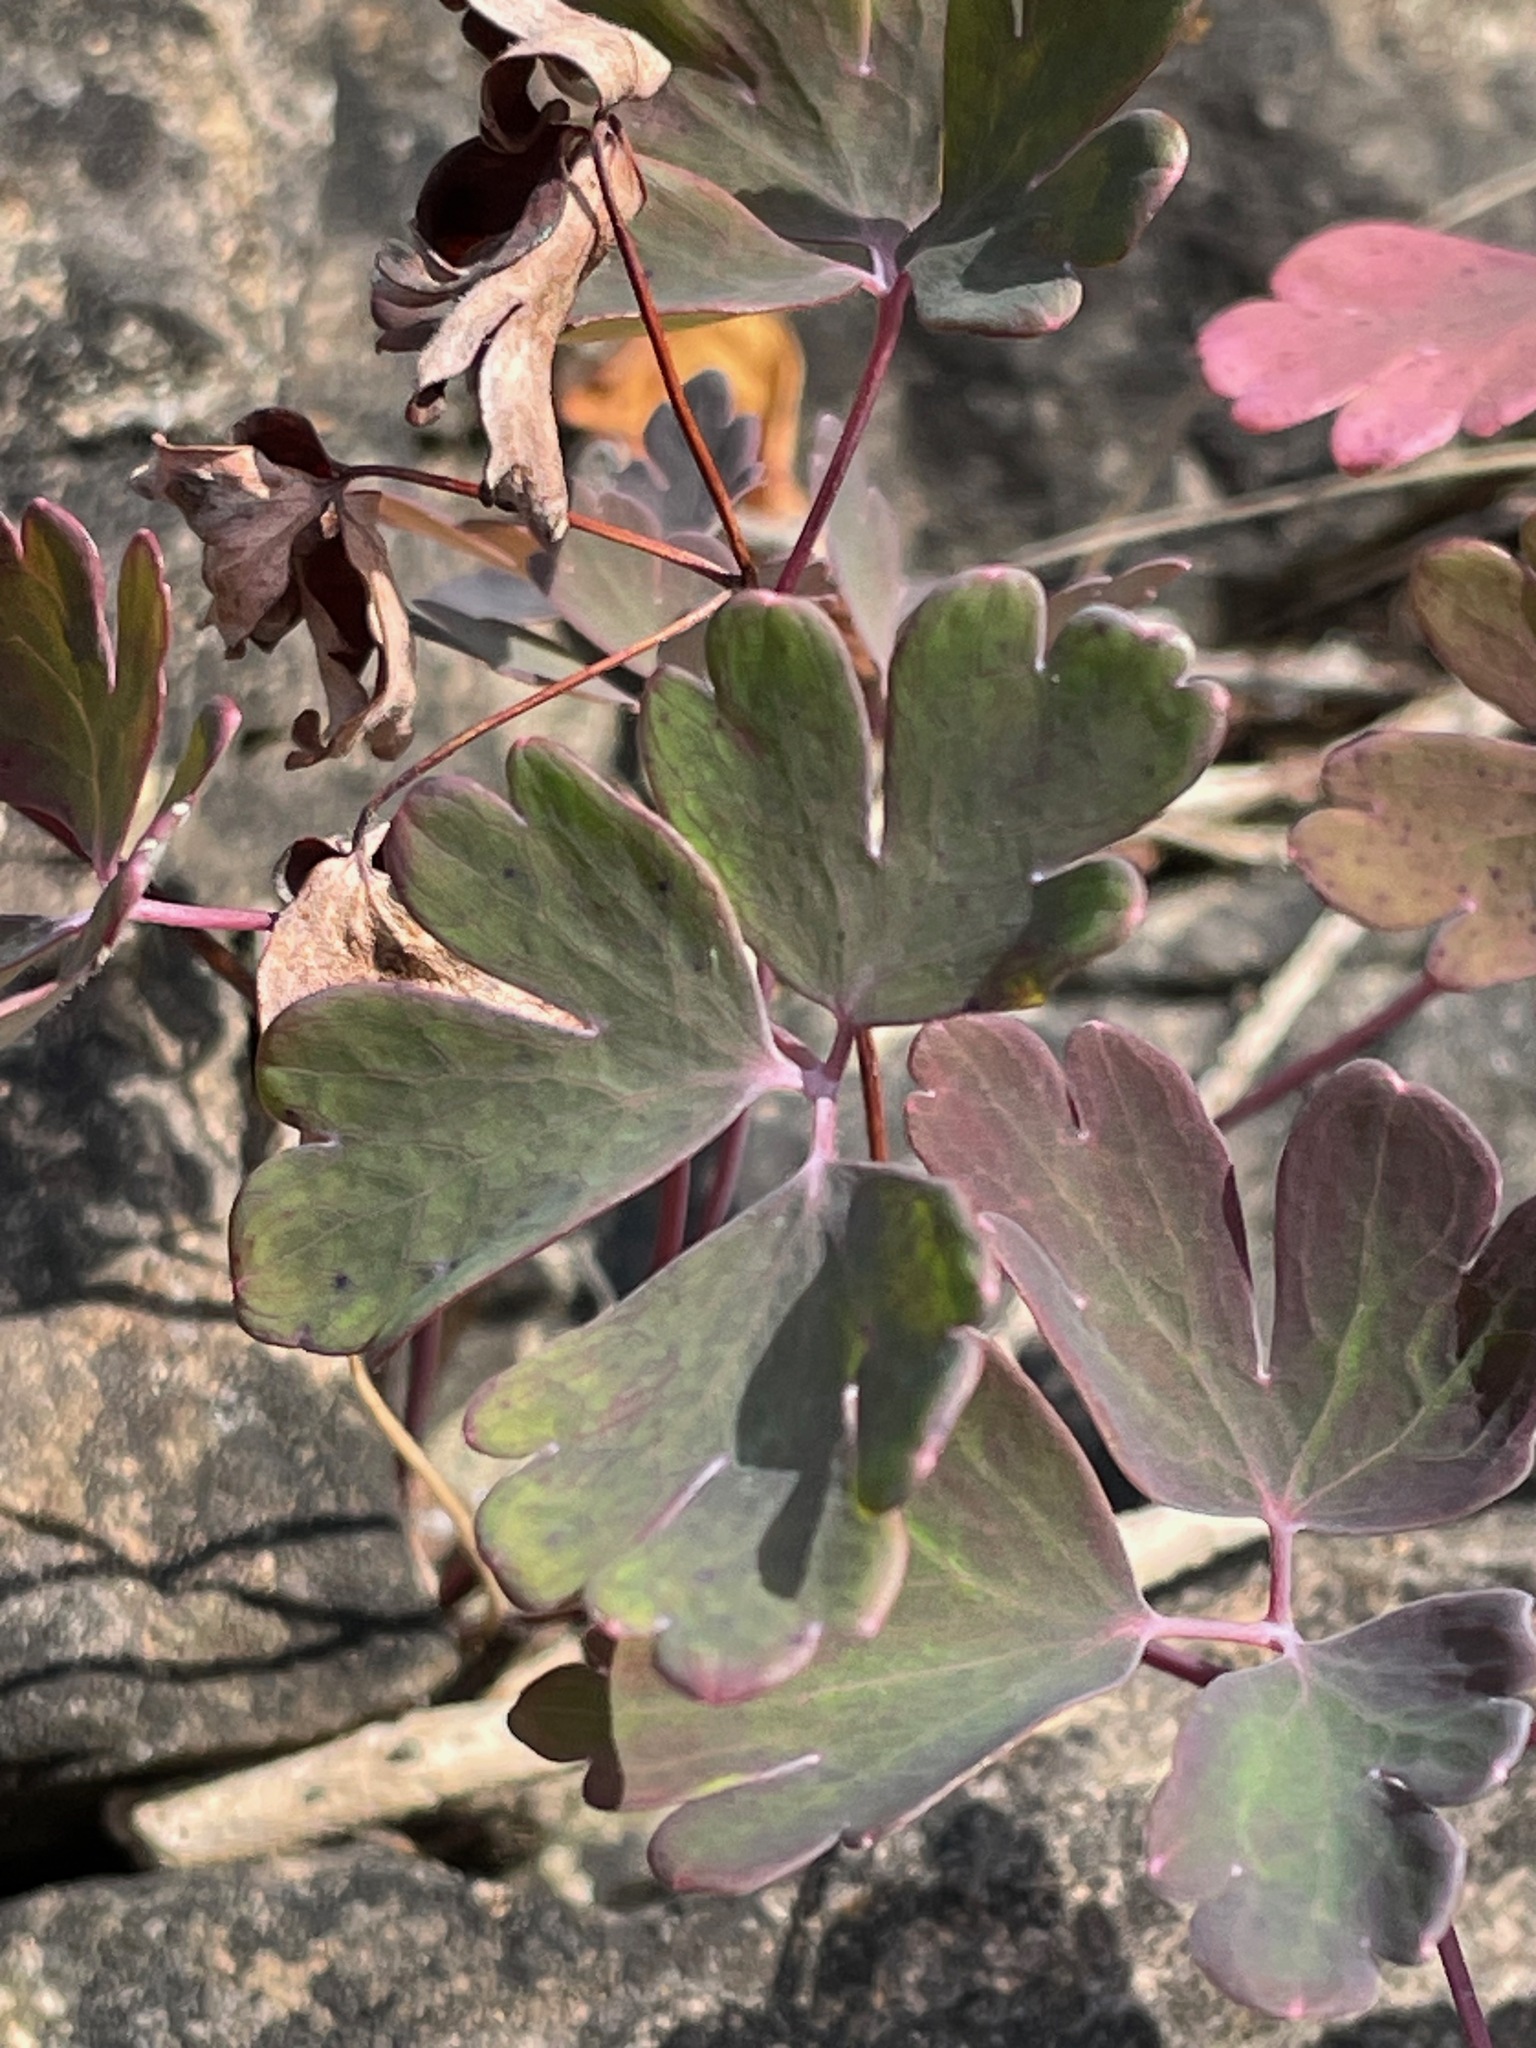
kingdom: Plantae
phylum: Tracheophyta
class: Magnoliopsida
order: Ranunculales
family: Ranunculaceae
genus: Aquilegia
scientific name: Aquilegia canadensis
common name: American columbine
